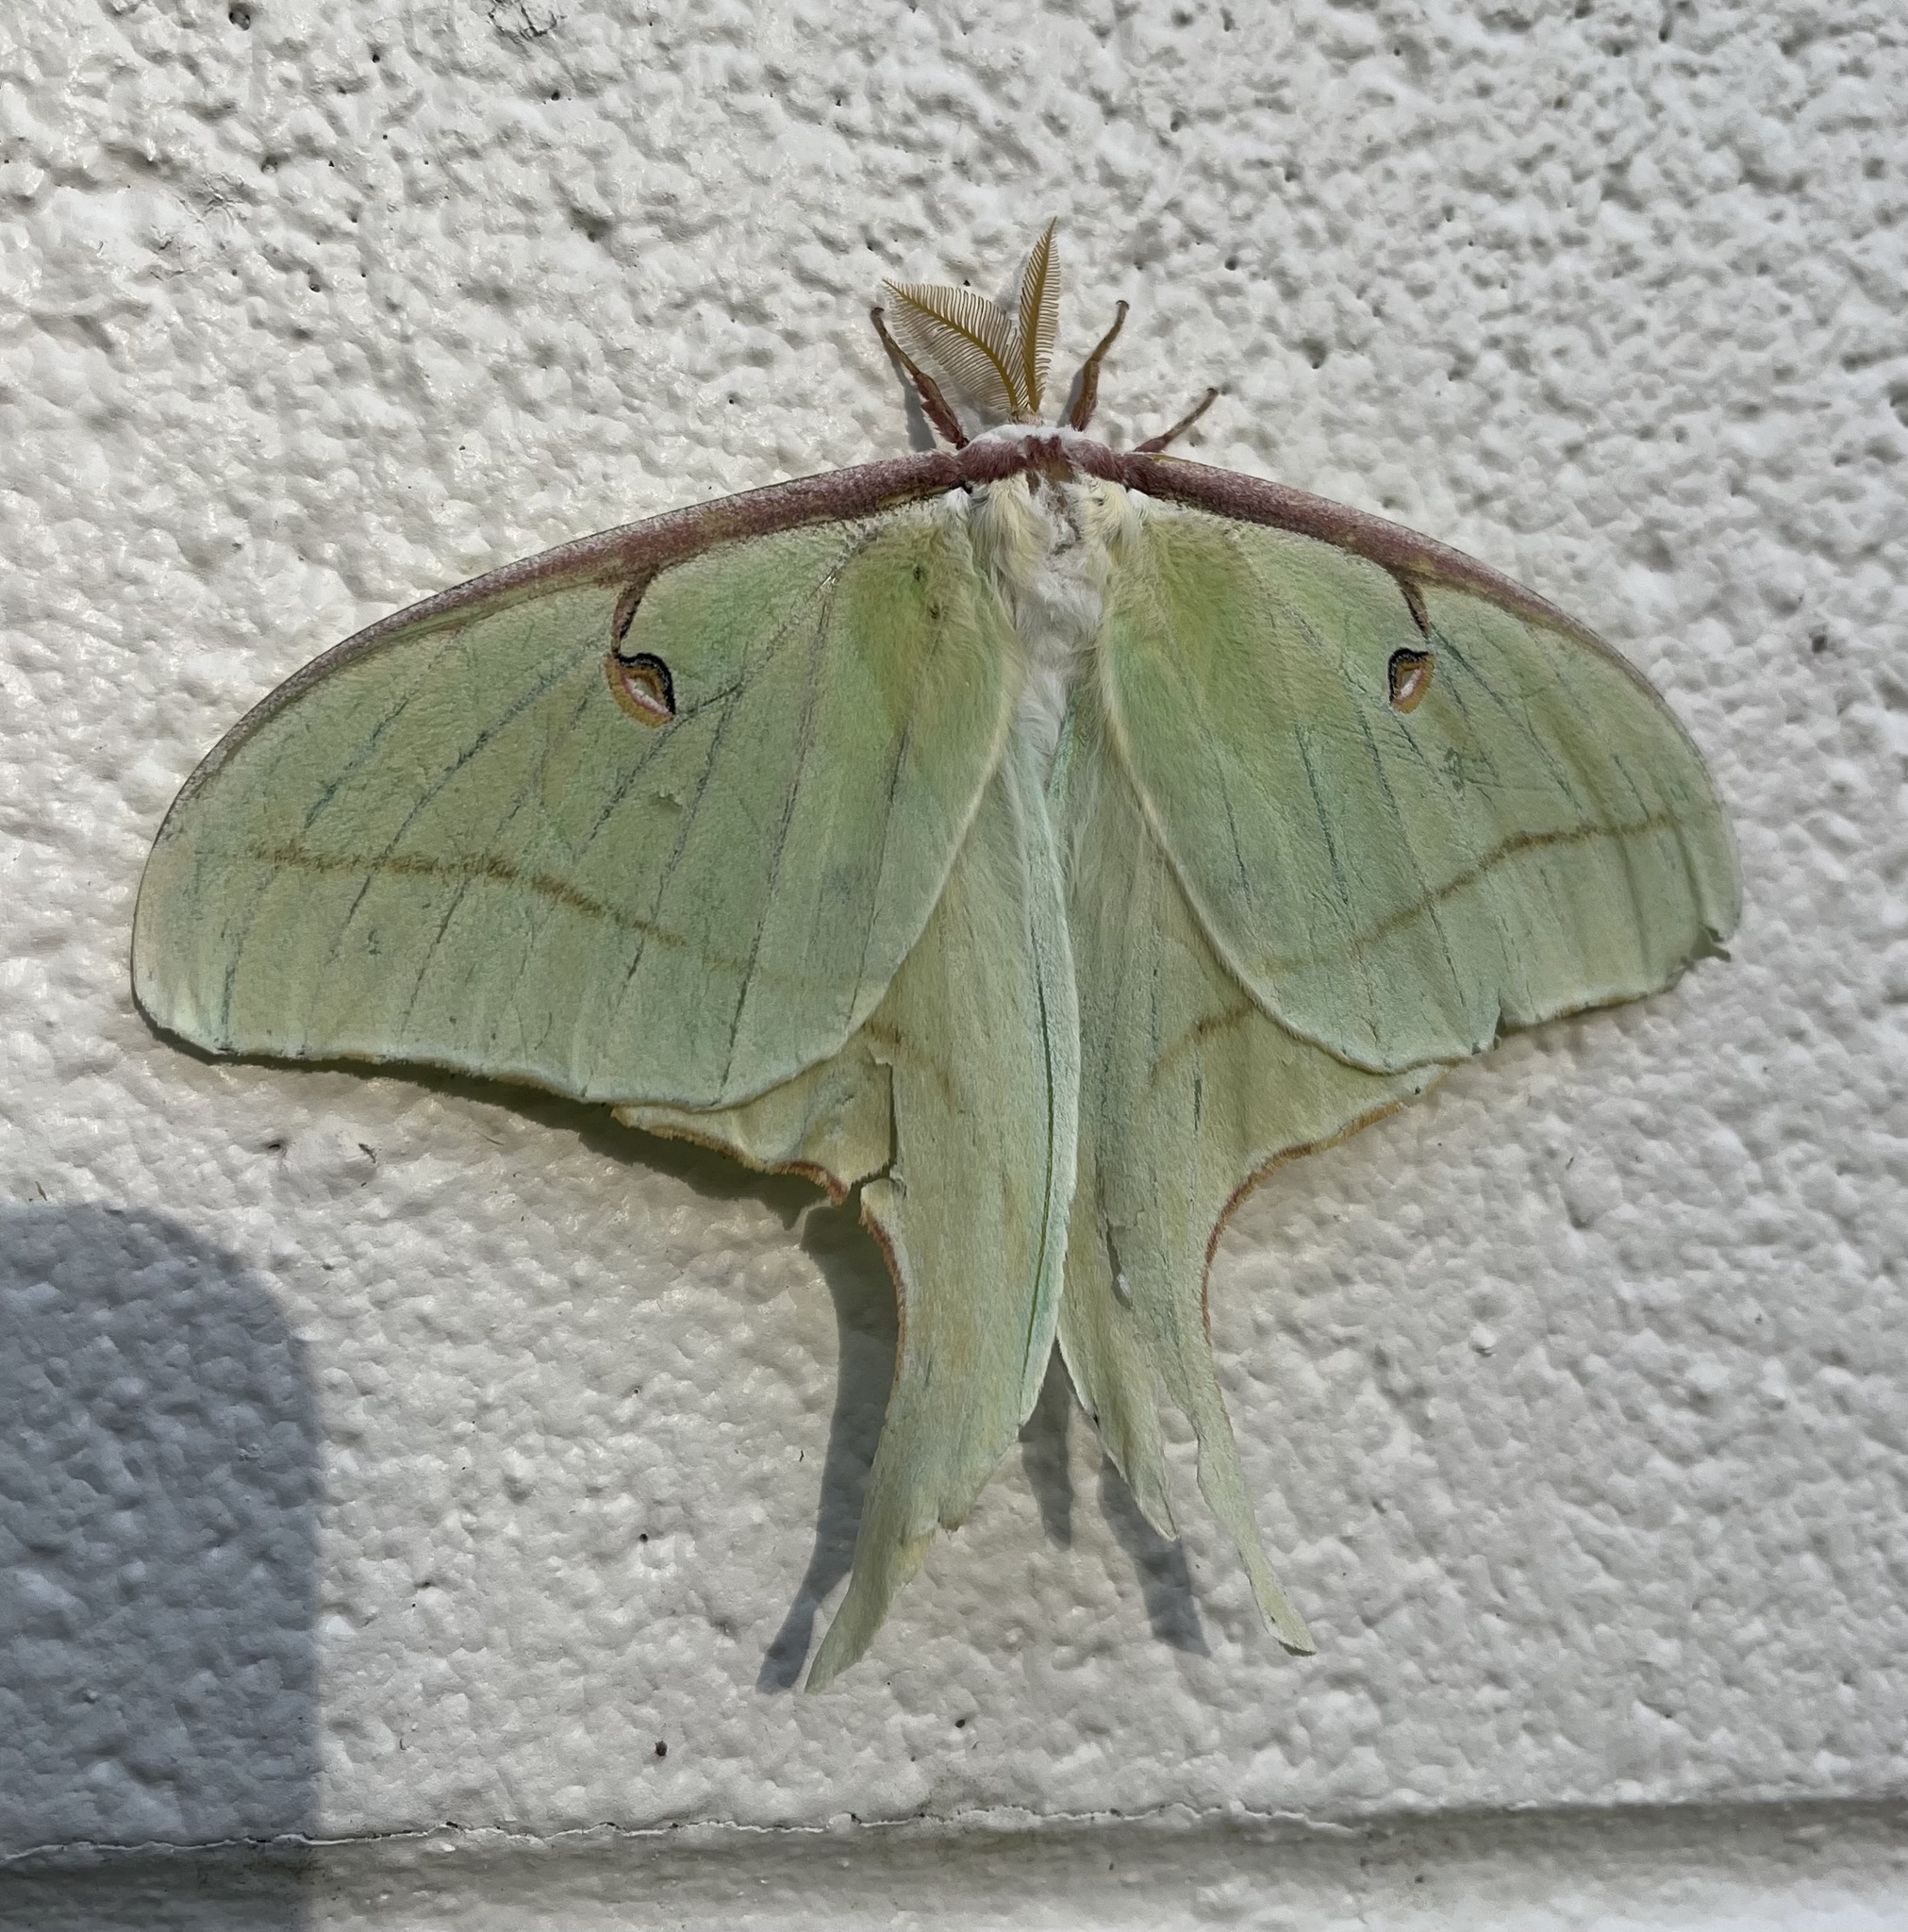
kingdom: Animalia
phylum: Arthropoda
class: Insecta
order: Lepidoptera
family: Saturniidae
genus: Actias
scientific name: Actias luna
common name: Luna moth
